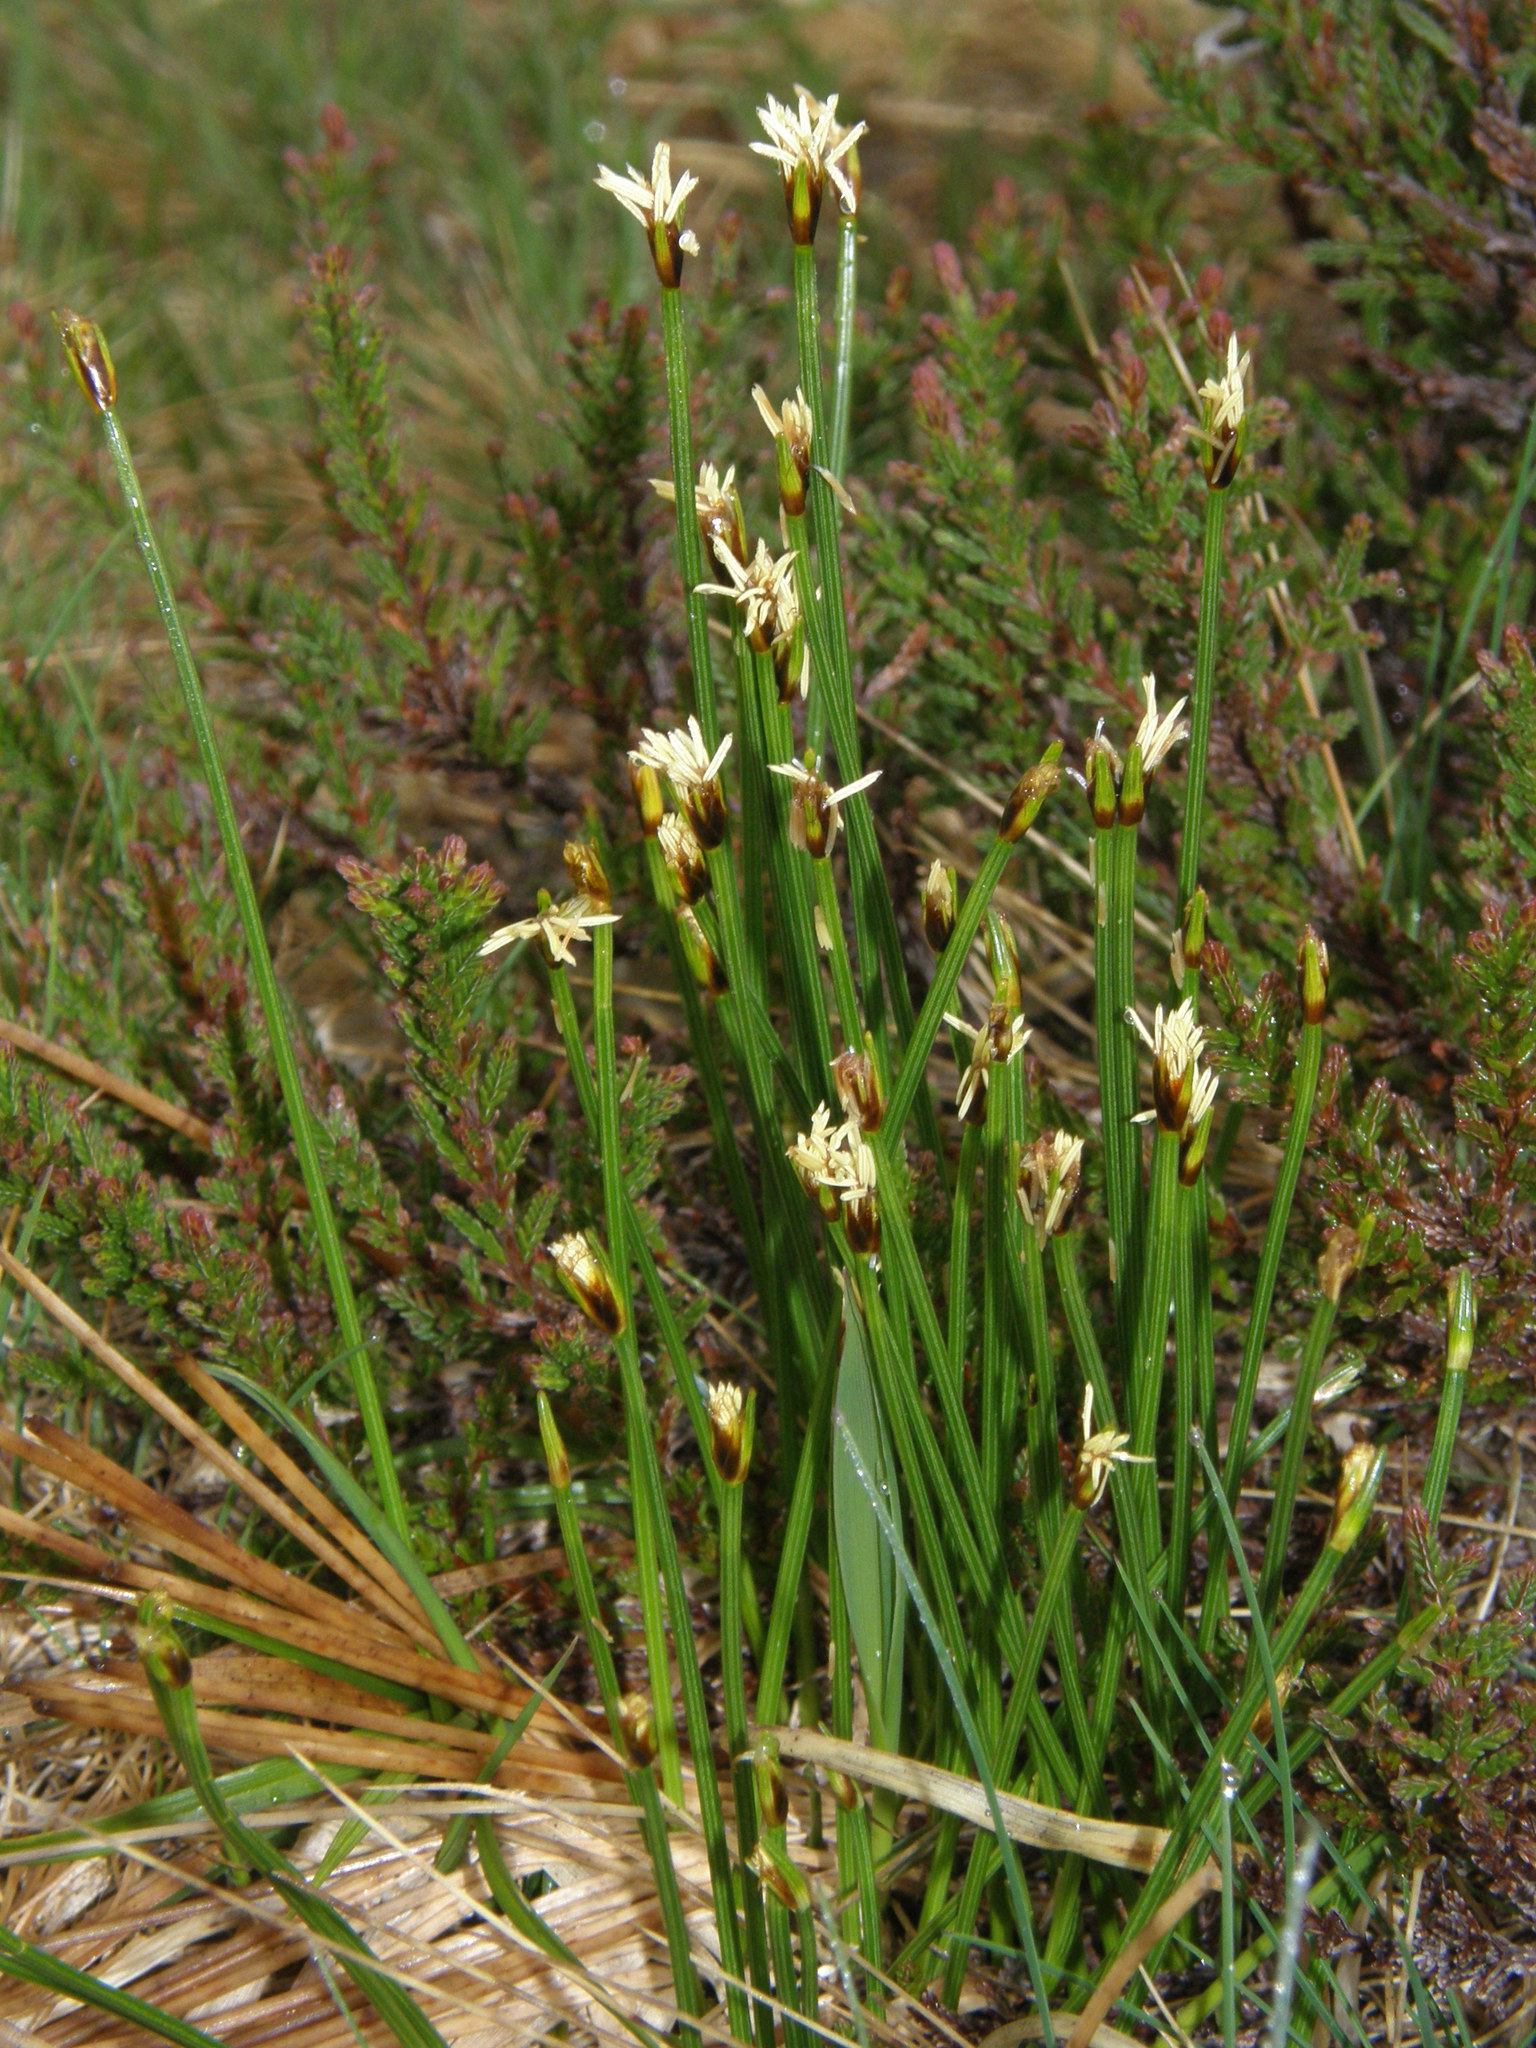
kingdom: Plantae
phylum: Tracheophyta
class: Liliopsida
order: Poales
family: Cyperaceae
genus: Trichophorum
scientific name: Trichophorum cespitosum
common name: Cespitose bulrush
